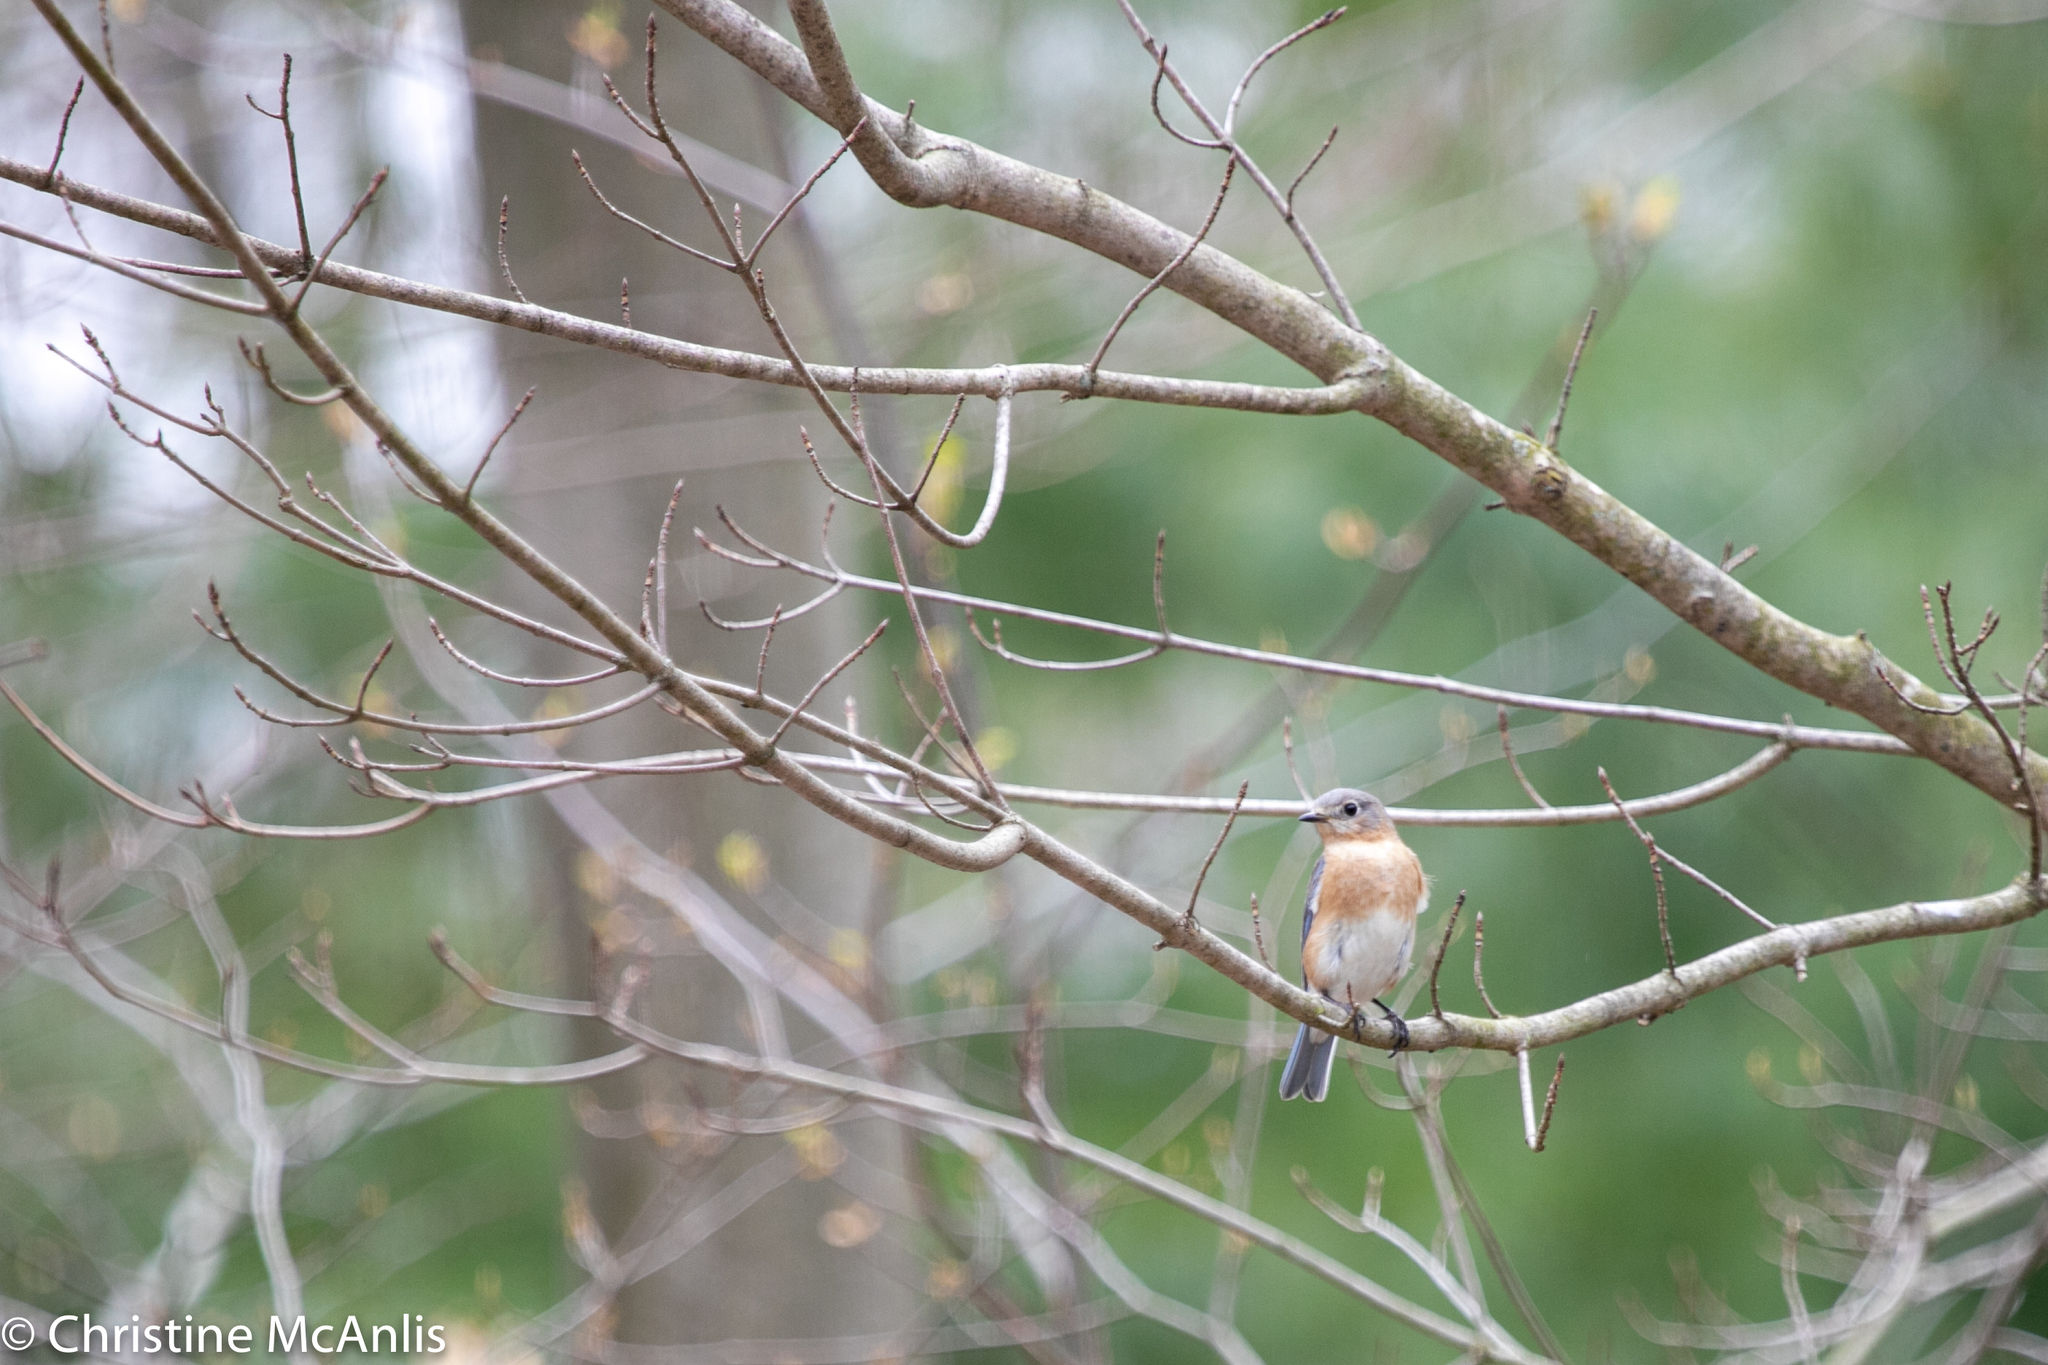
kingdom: Animalia
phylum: Chordata
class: Aves
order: Passeriformes
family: Turdidae
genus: Sialia
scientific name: Sialia sialis
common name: Eastern bluebird
